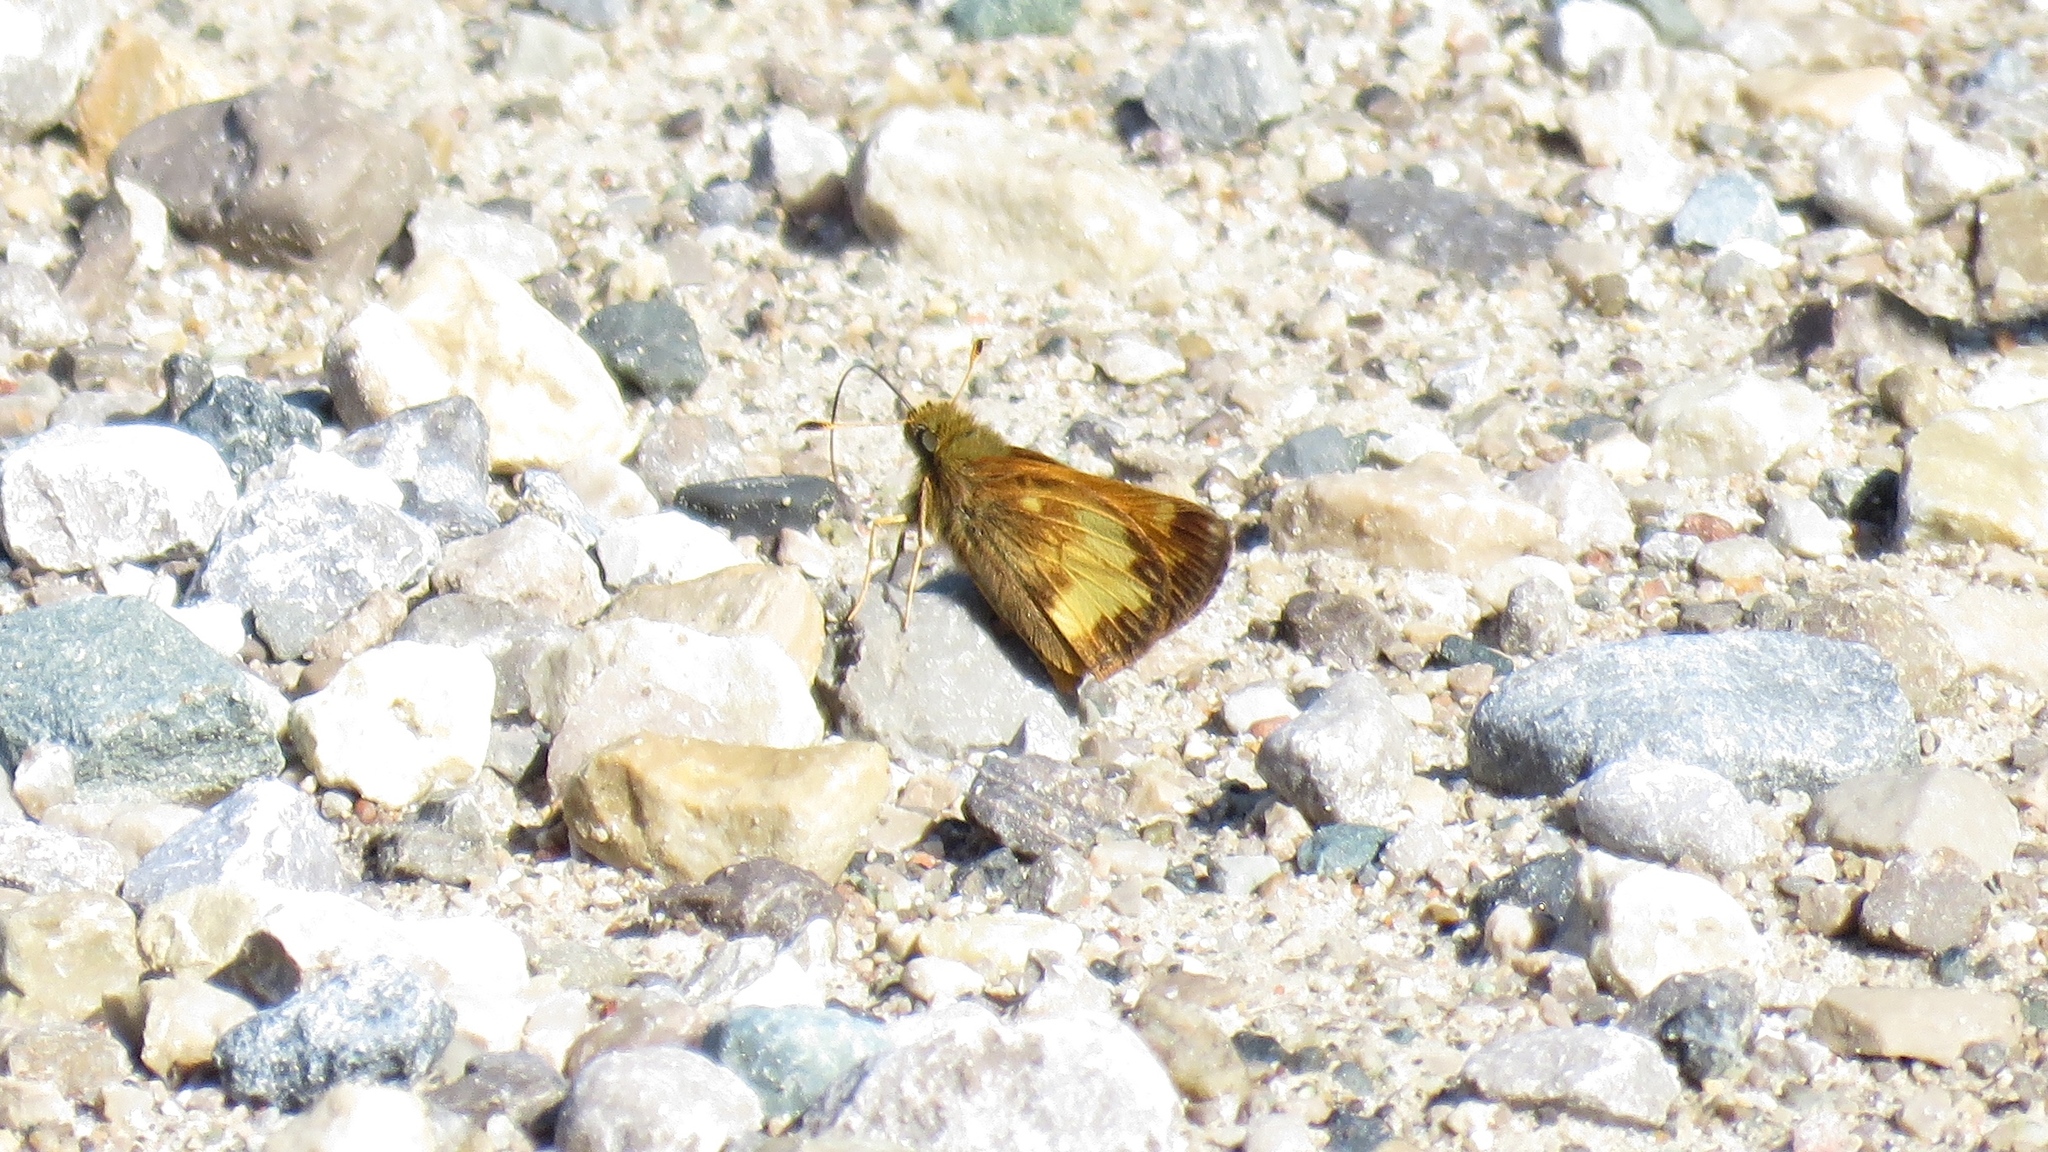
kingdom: Animalia
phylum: Arthropoda
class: Insecta
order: Lepidoptera
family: Hesperiidae
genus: Lon
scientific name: Lon hobomok
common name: Hobomok skipper
